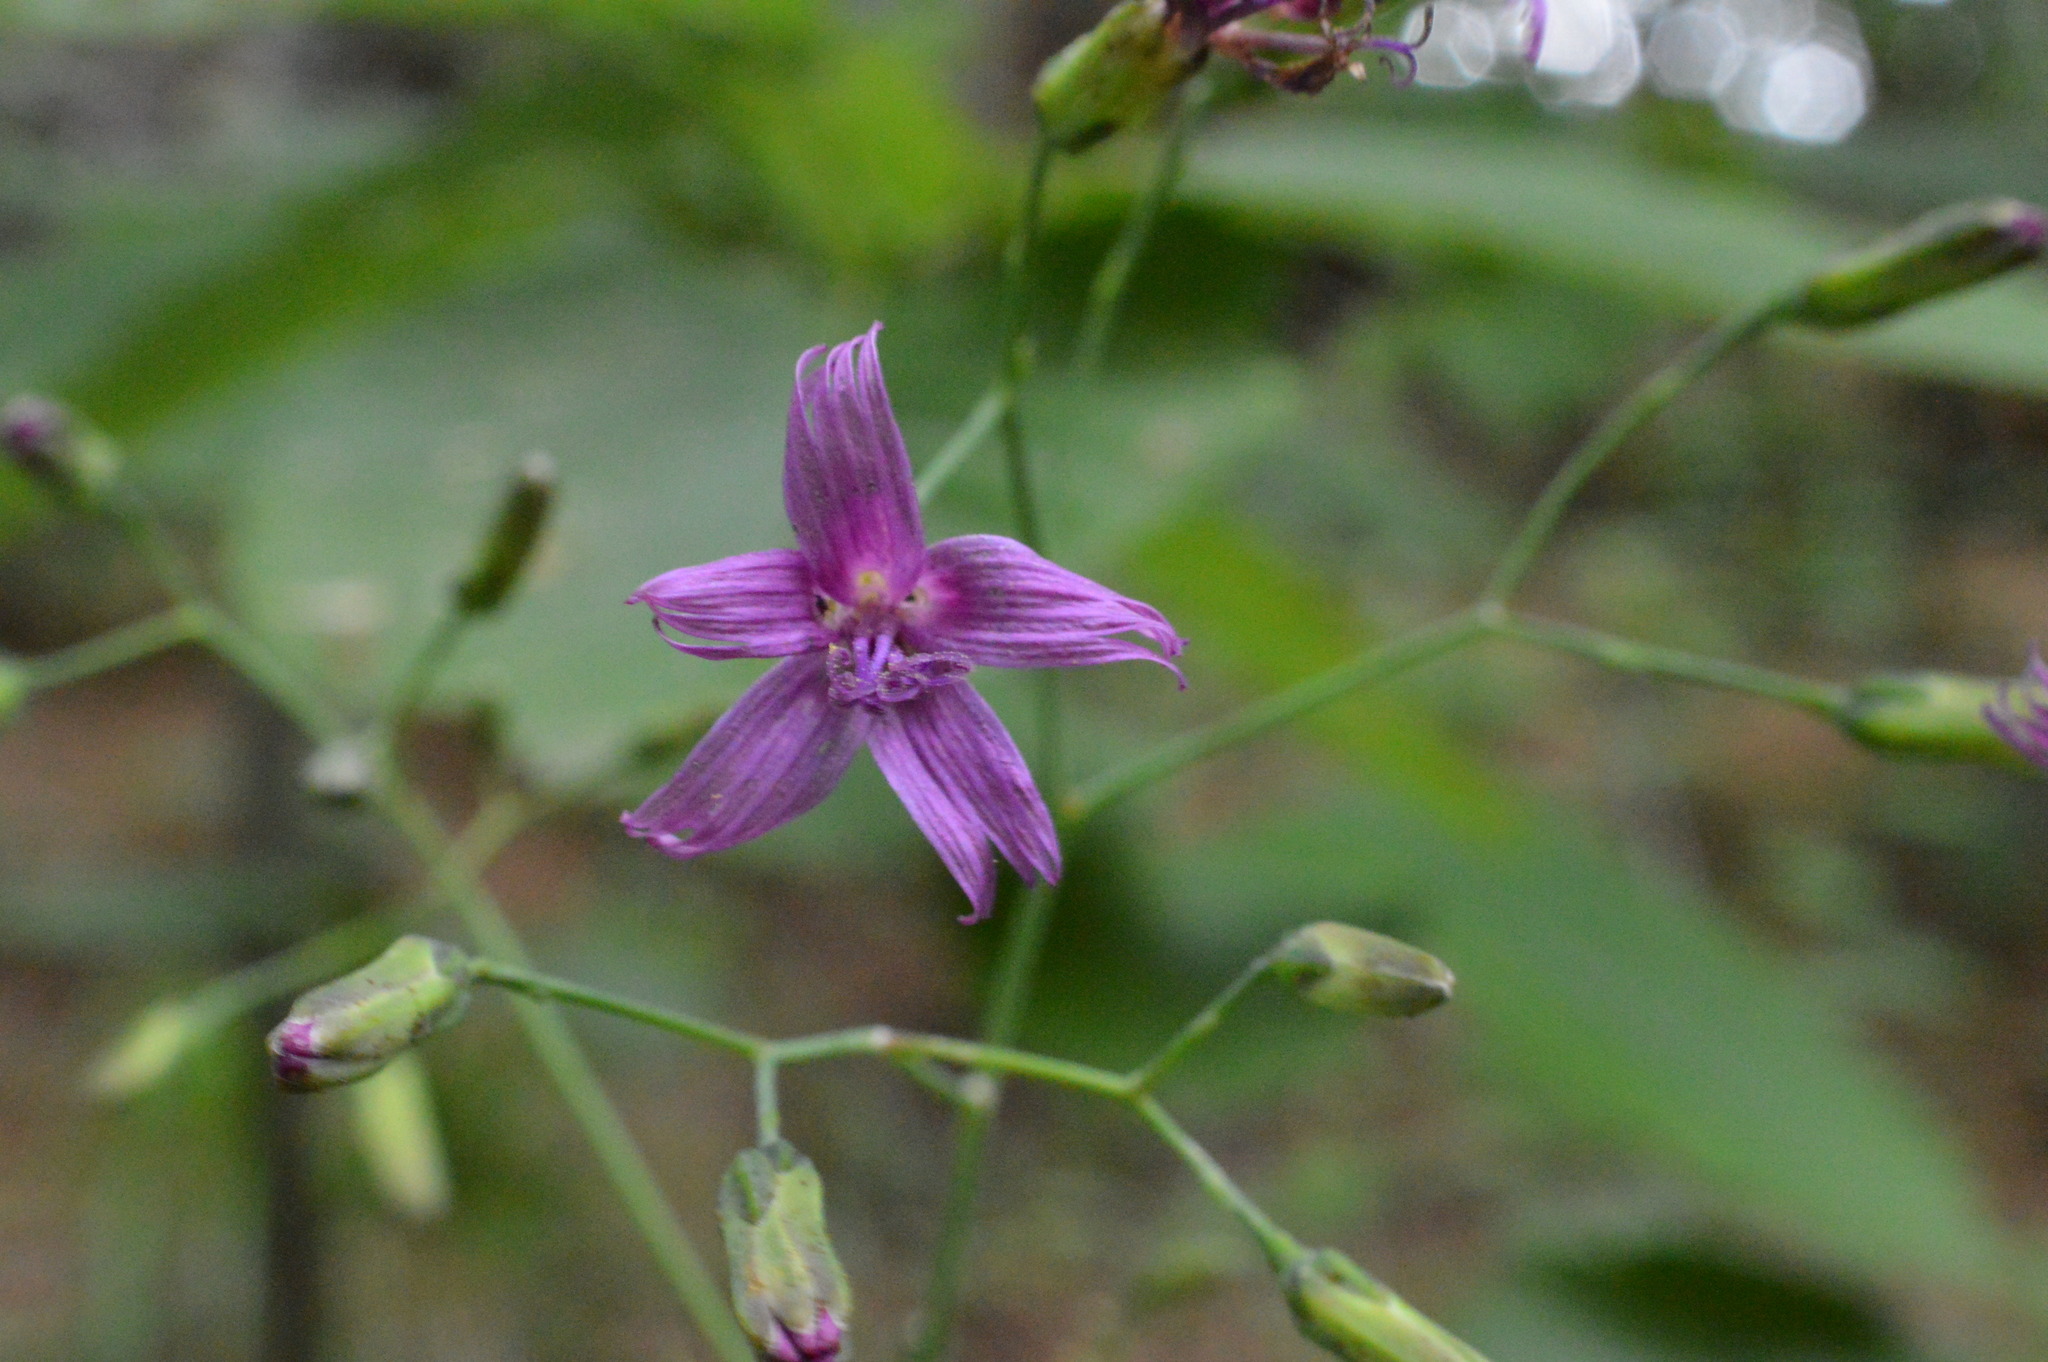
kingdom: Plantae
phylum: Tracheophyta
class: Magnoliopsida
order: Asterales
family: Asteraceae
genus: Prenanthes
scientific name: Prenanthes purpurea
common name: Purple lettuce
